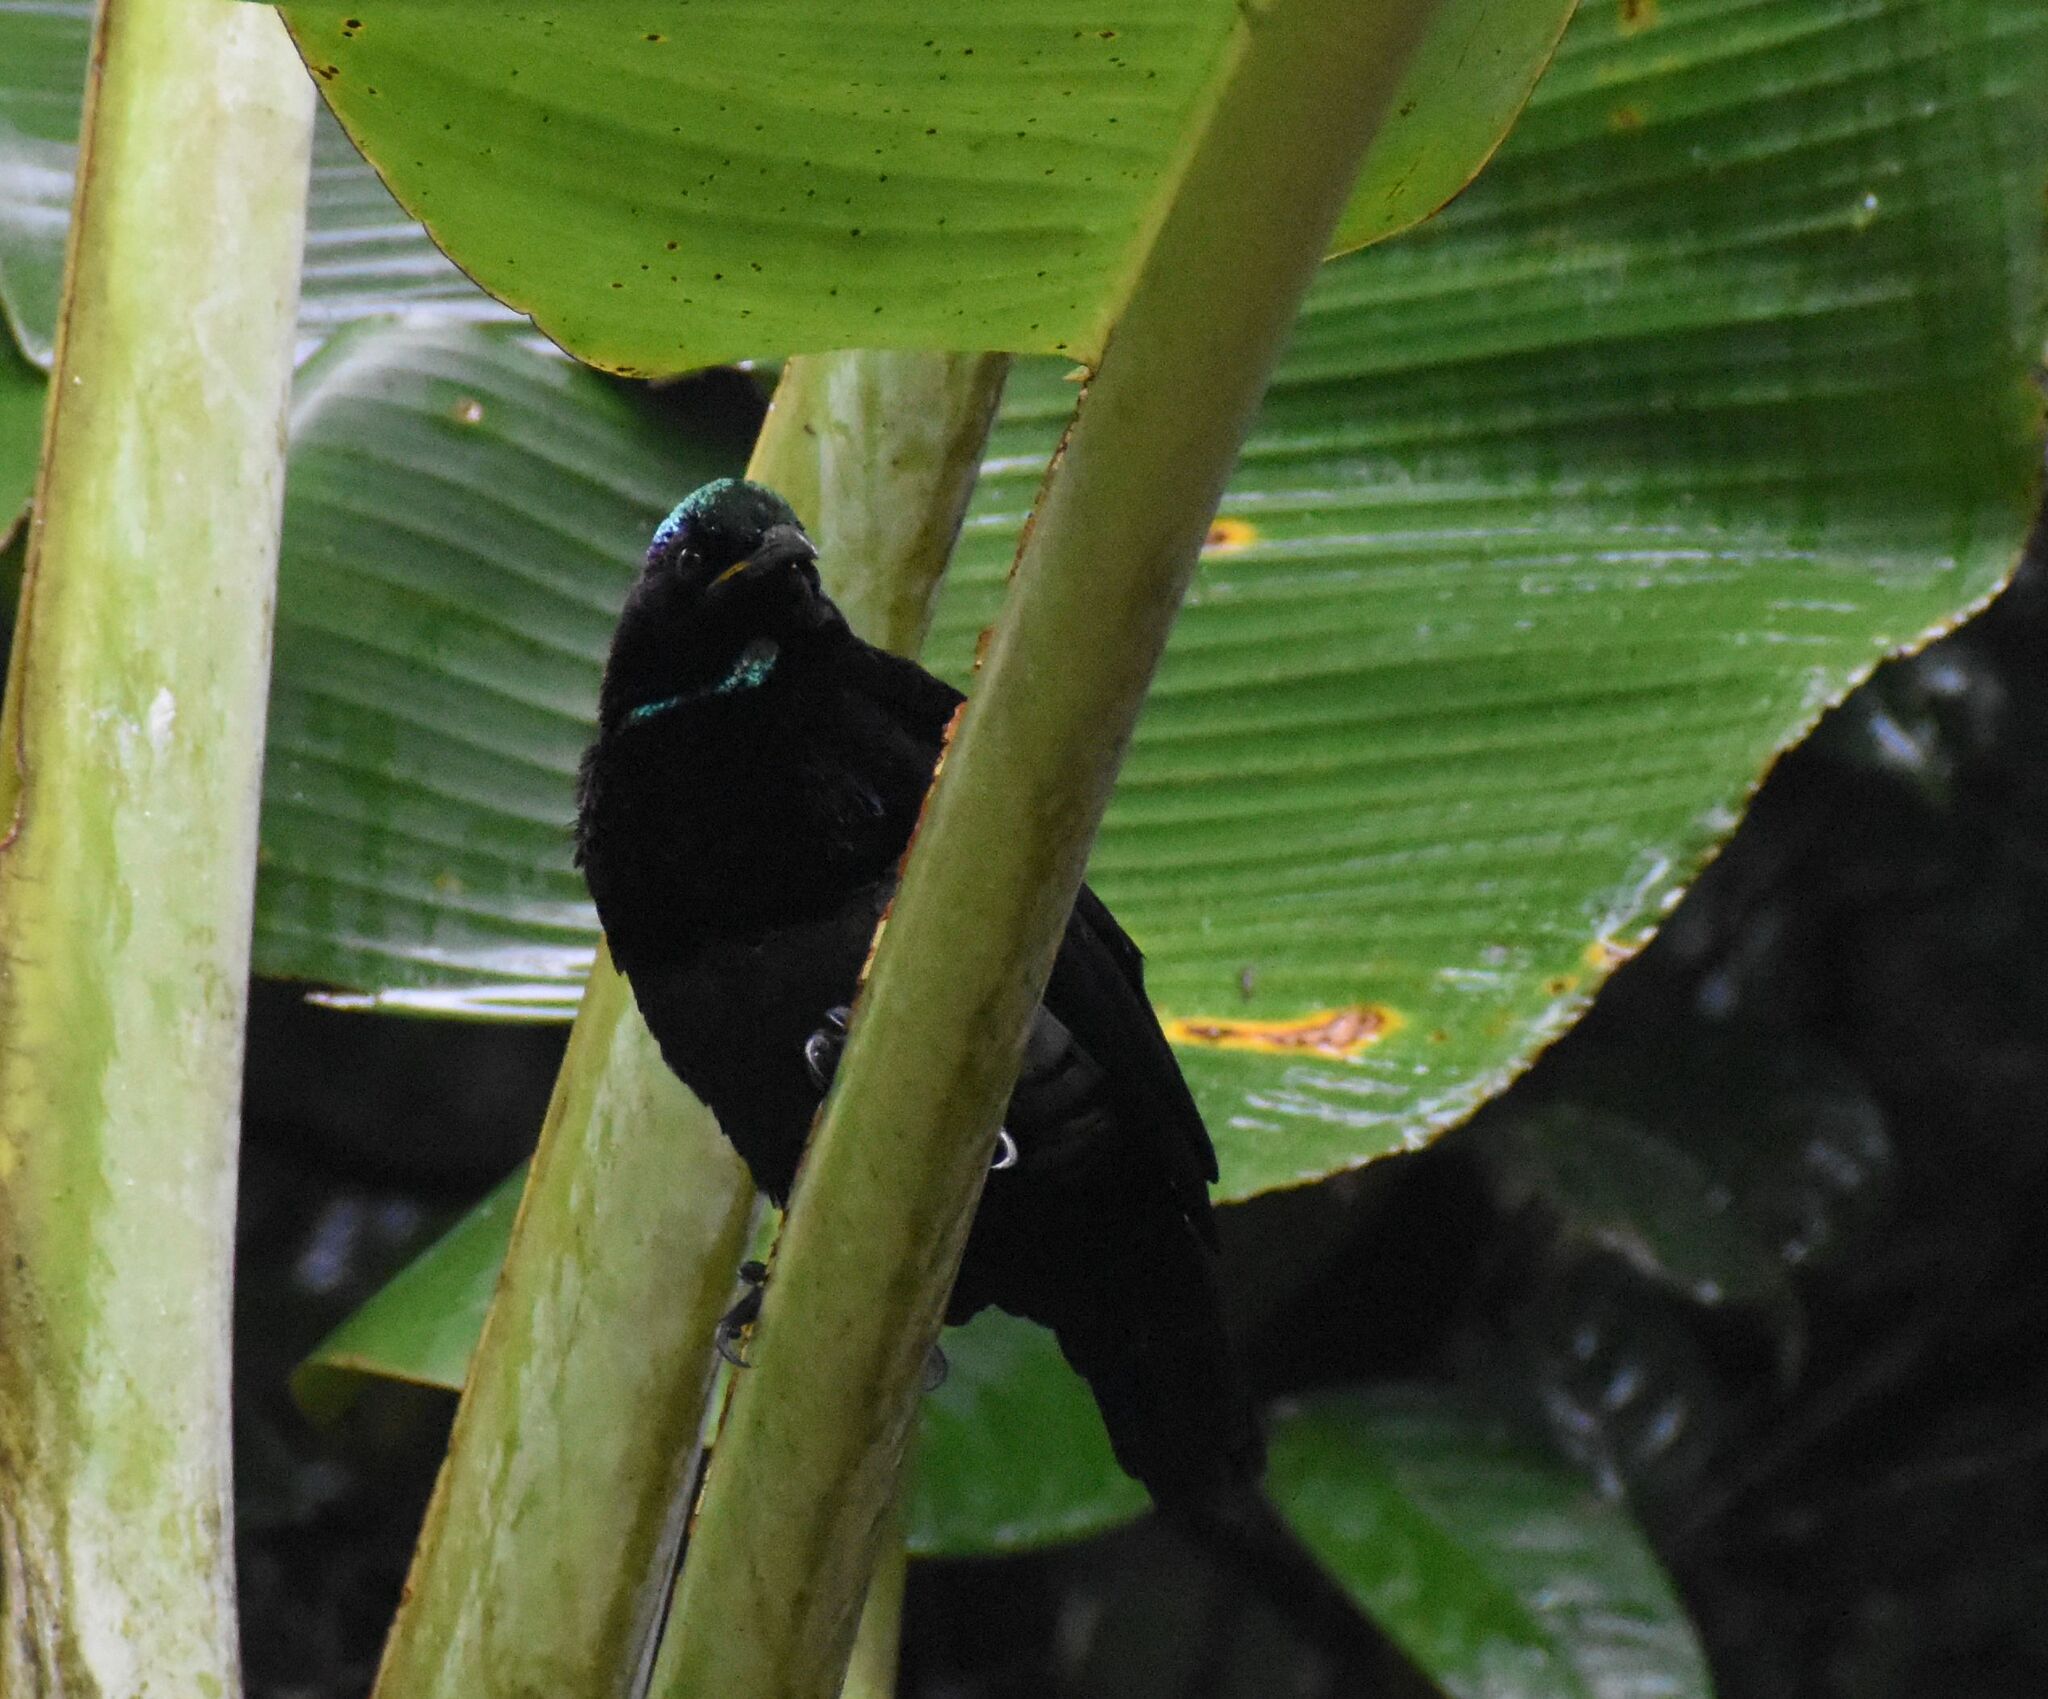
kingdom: Animalia
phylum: Chordata
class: Aves
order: Passeriformes
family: Paradisaeidae
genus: Ptiloris
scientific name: Ptiloris victoriae
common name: Victoria's riflebird
